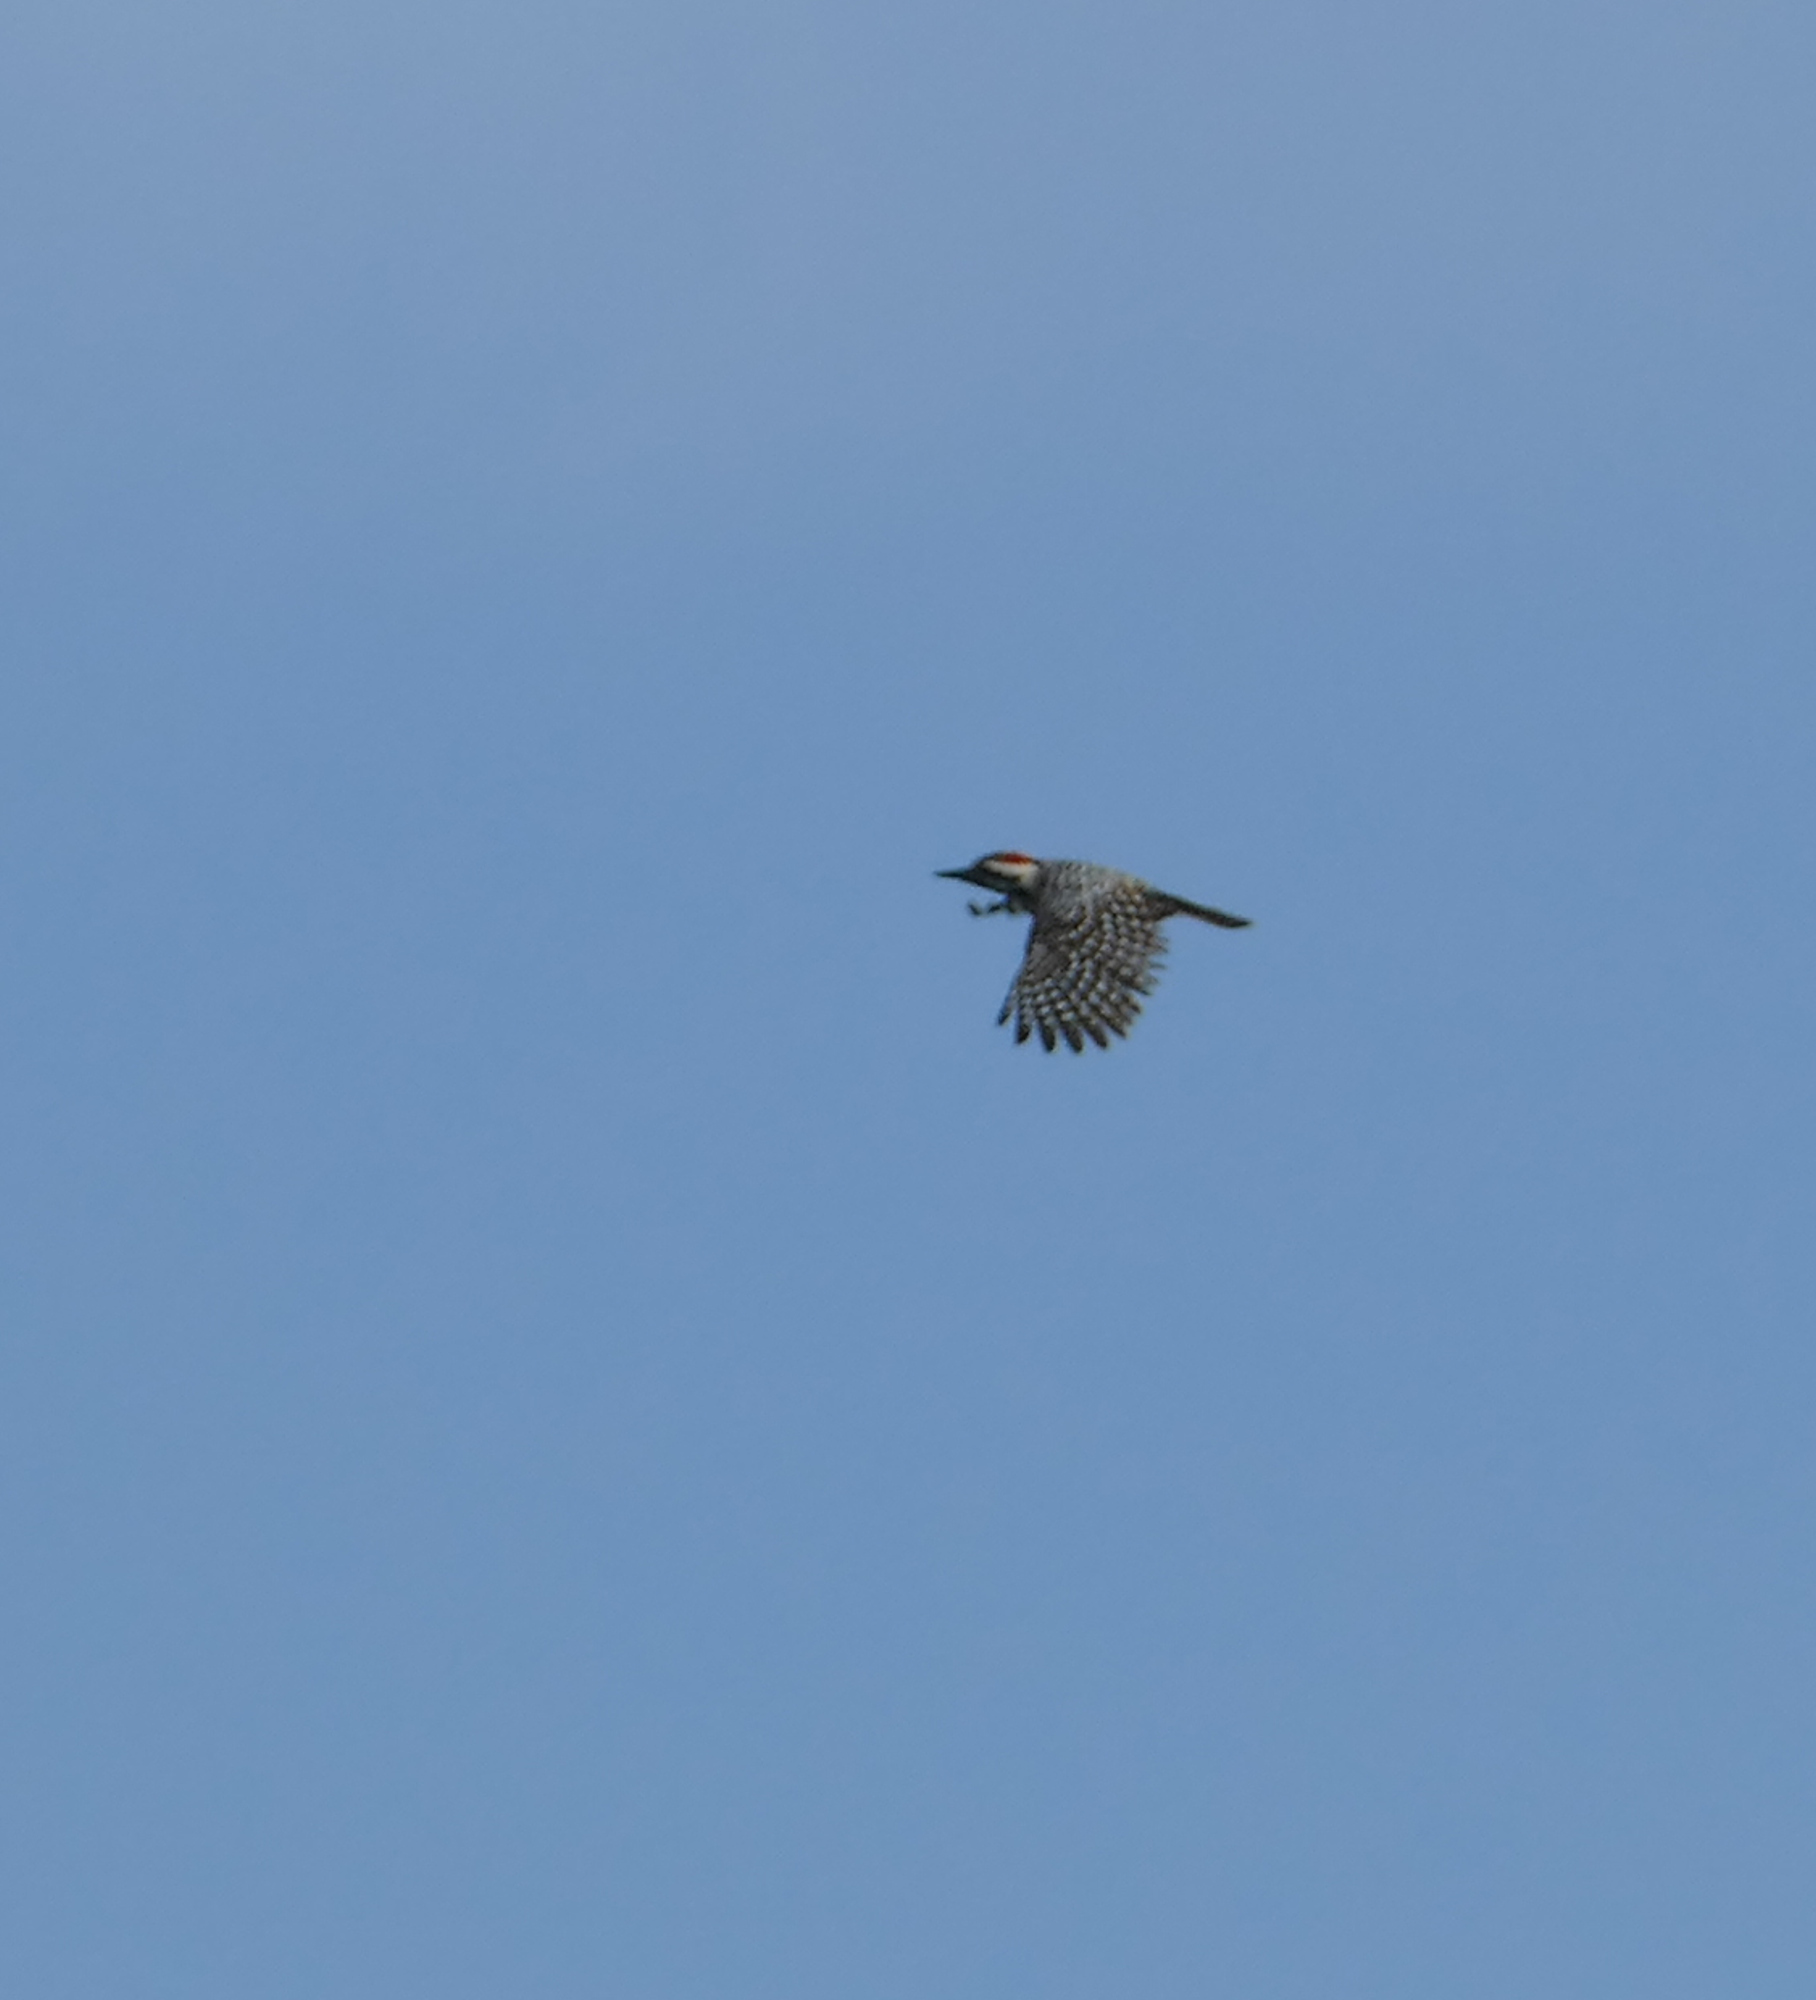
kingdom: Animalia
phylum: Chordata
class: Aves
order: Piciformes
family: Picidae
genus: Dryobates
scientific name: Dryobates scalaris
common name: Ladder-backed woodpecker
